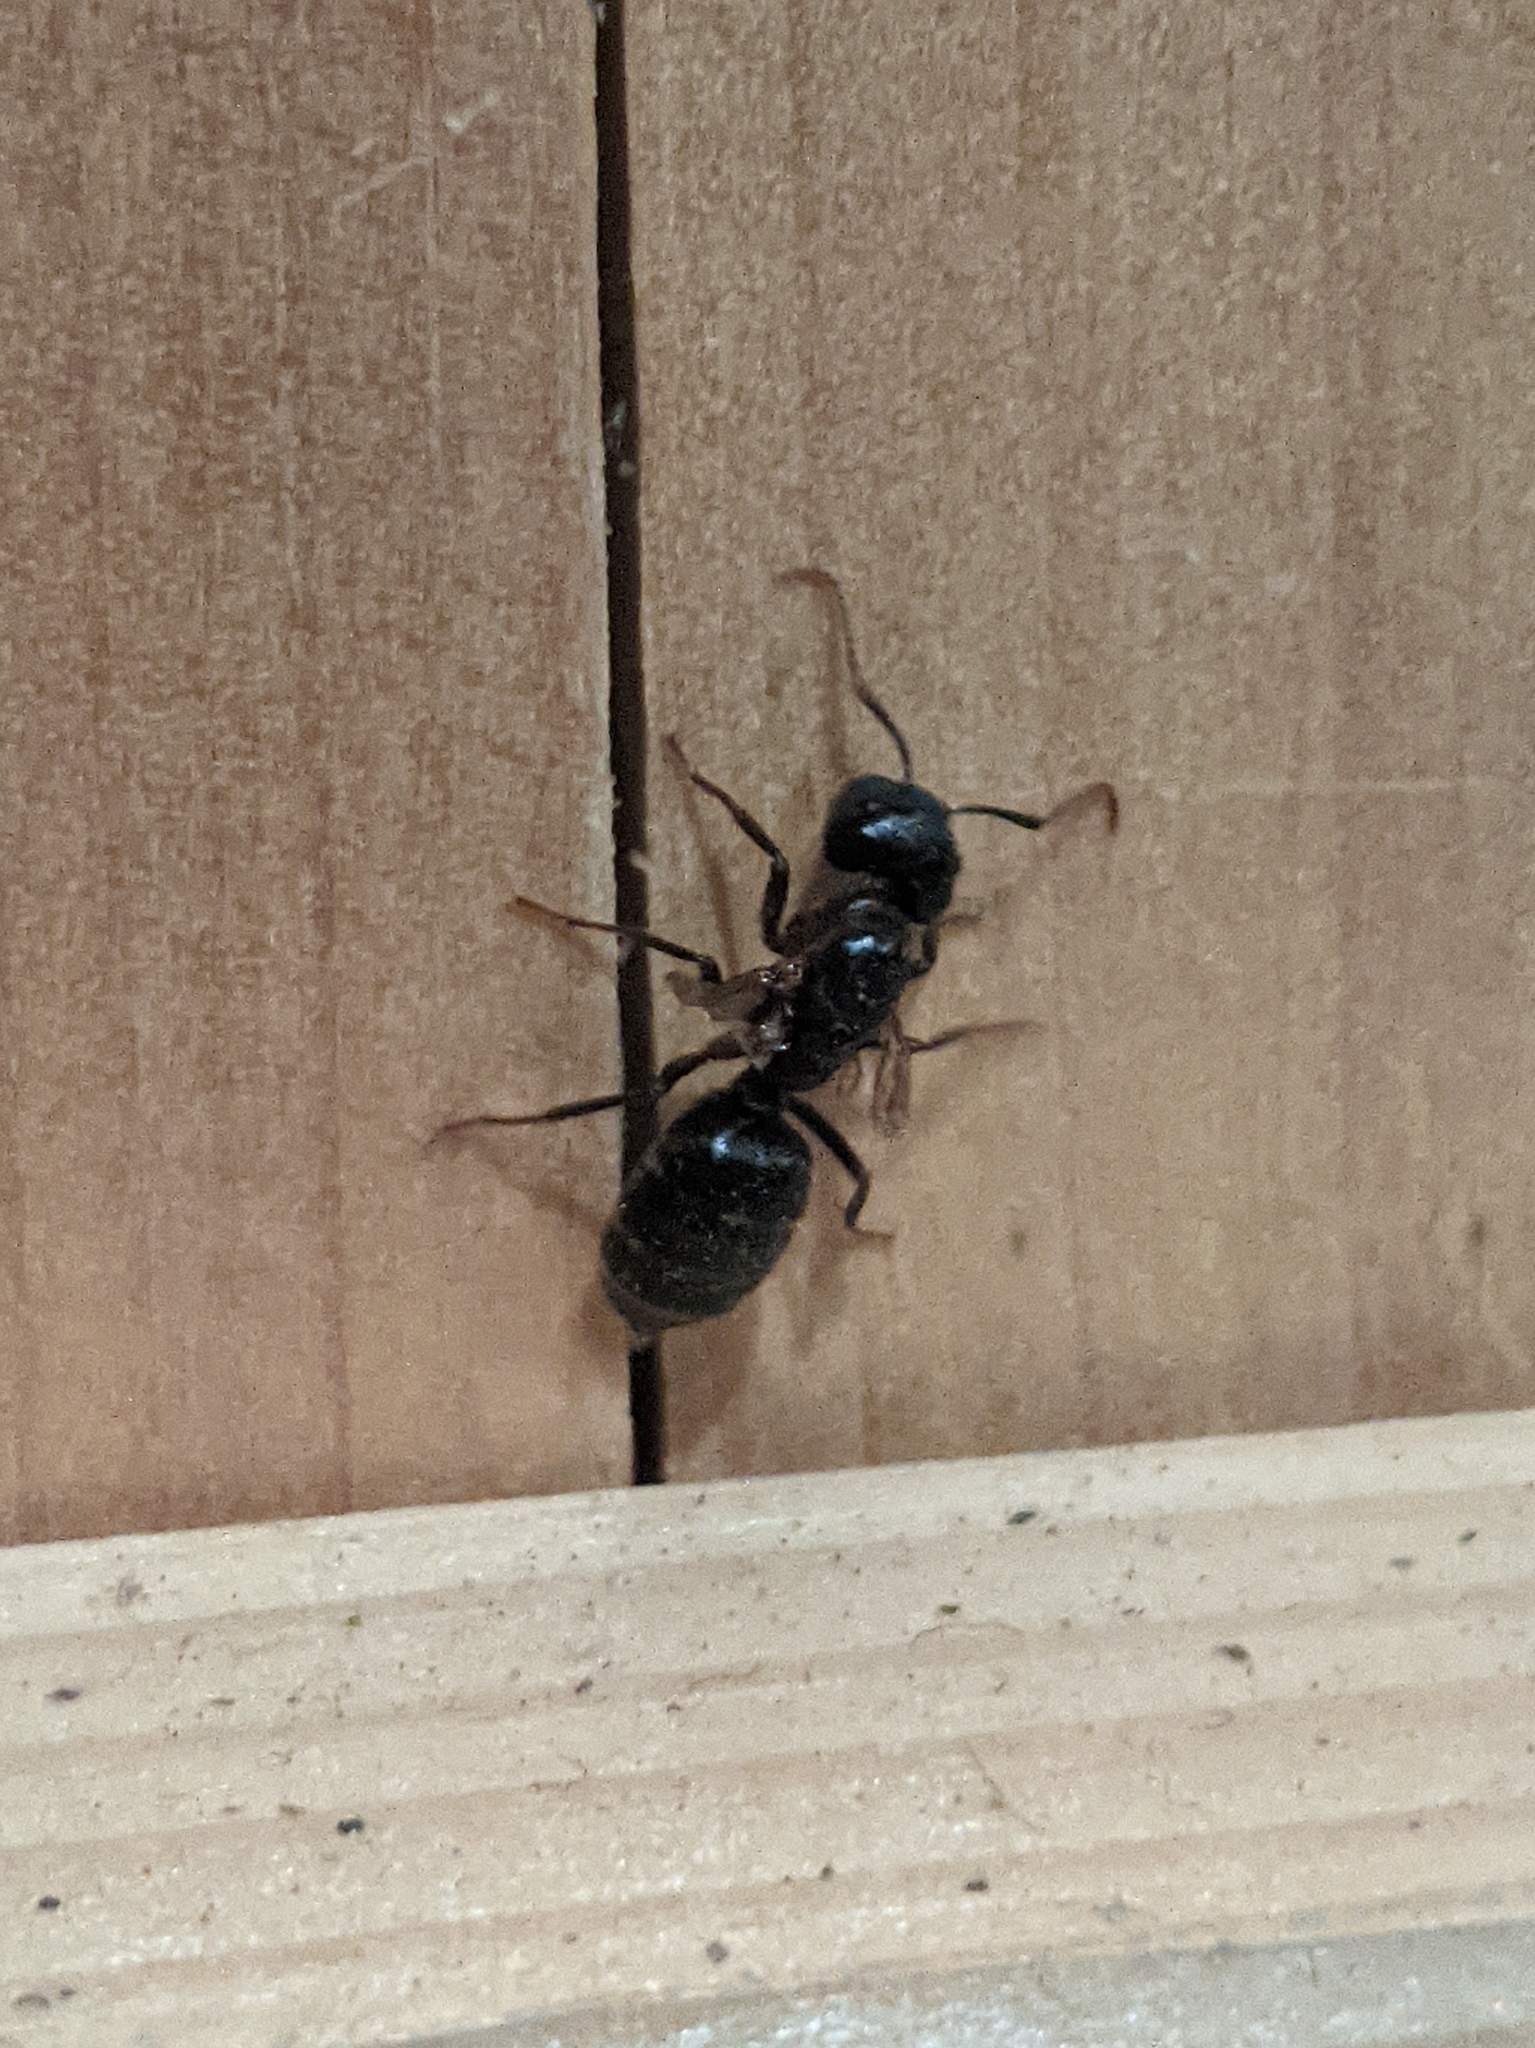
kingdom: Animalia
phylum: Arthropoda
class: Insecta
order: Hymenoptera
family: Formicidae
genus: Camponotus
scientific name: Camponotus pennsylvanicus
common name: Black carpenter ant
